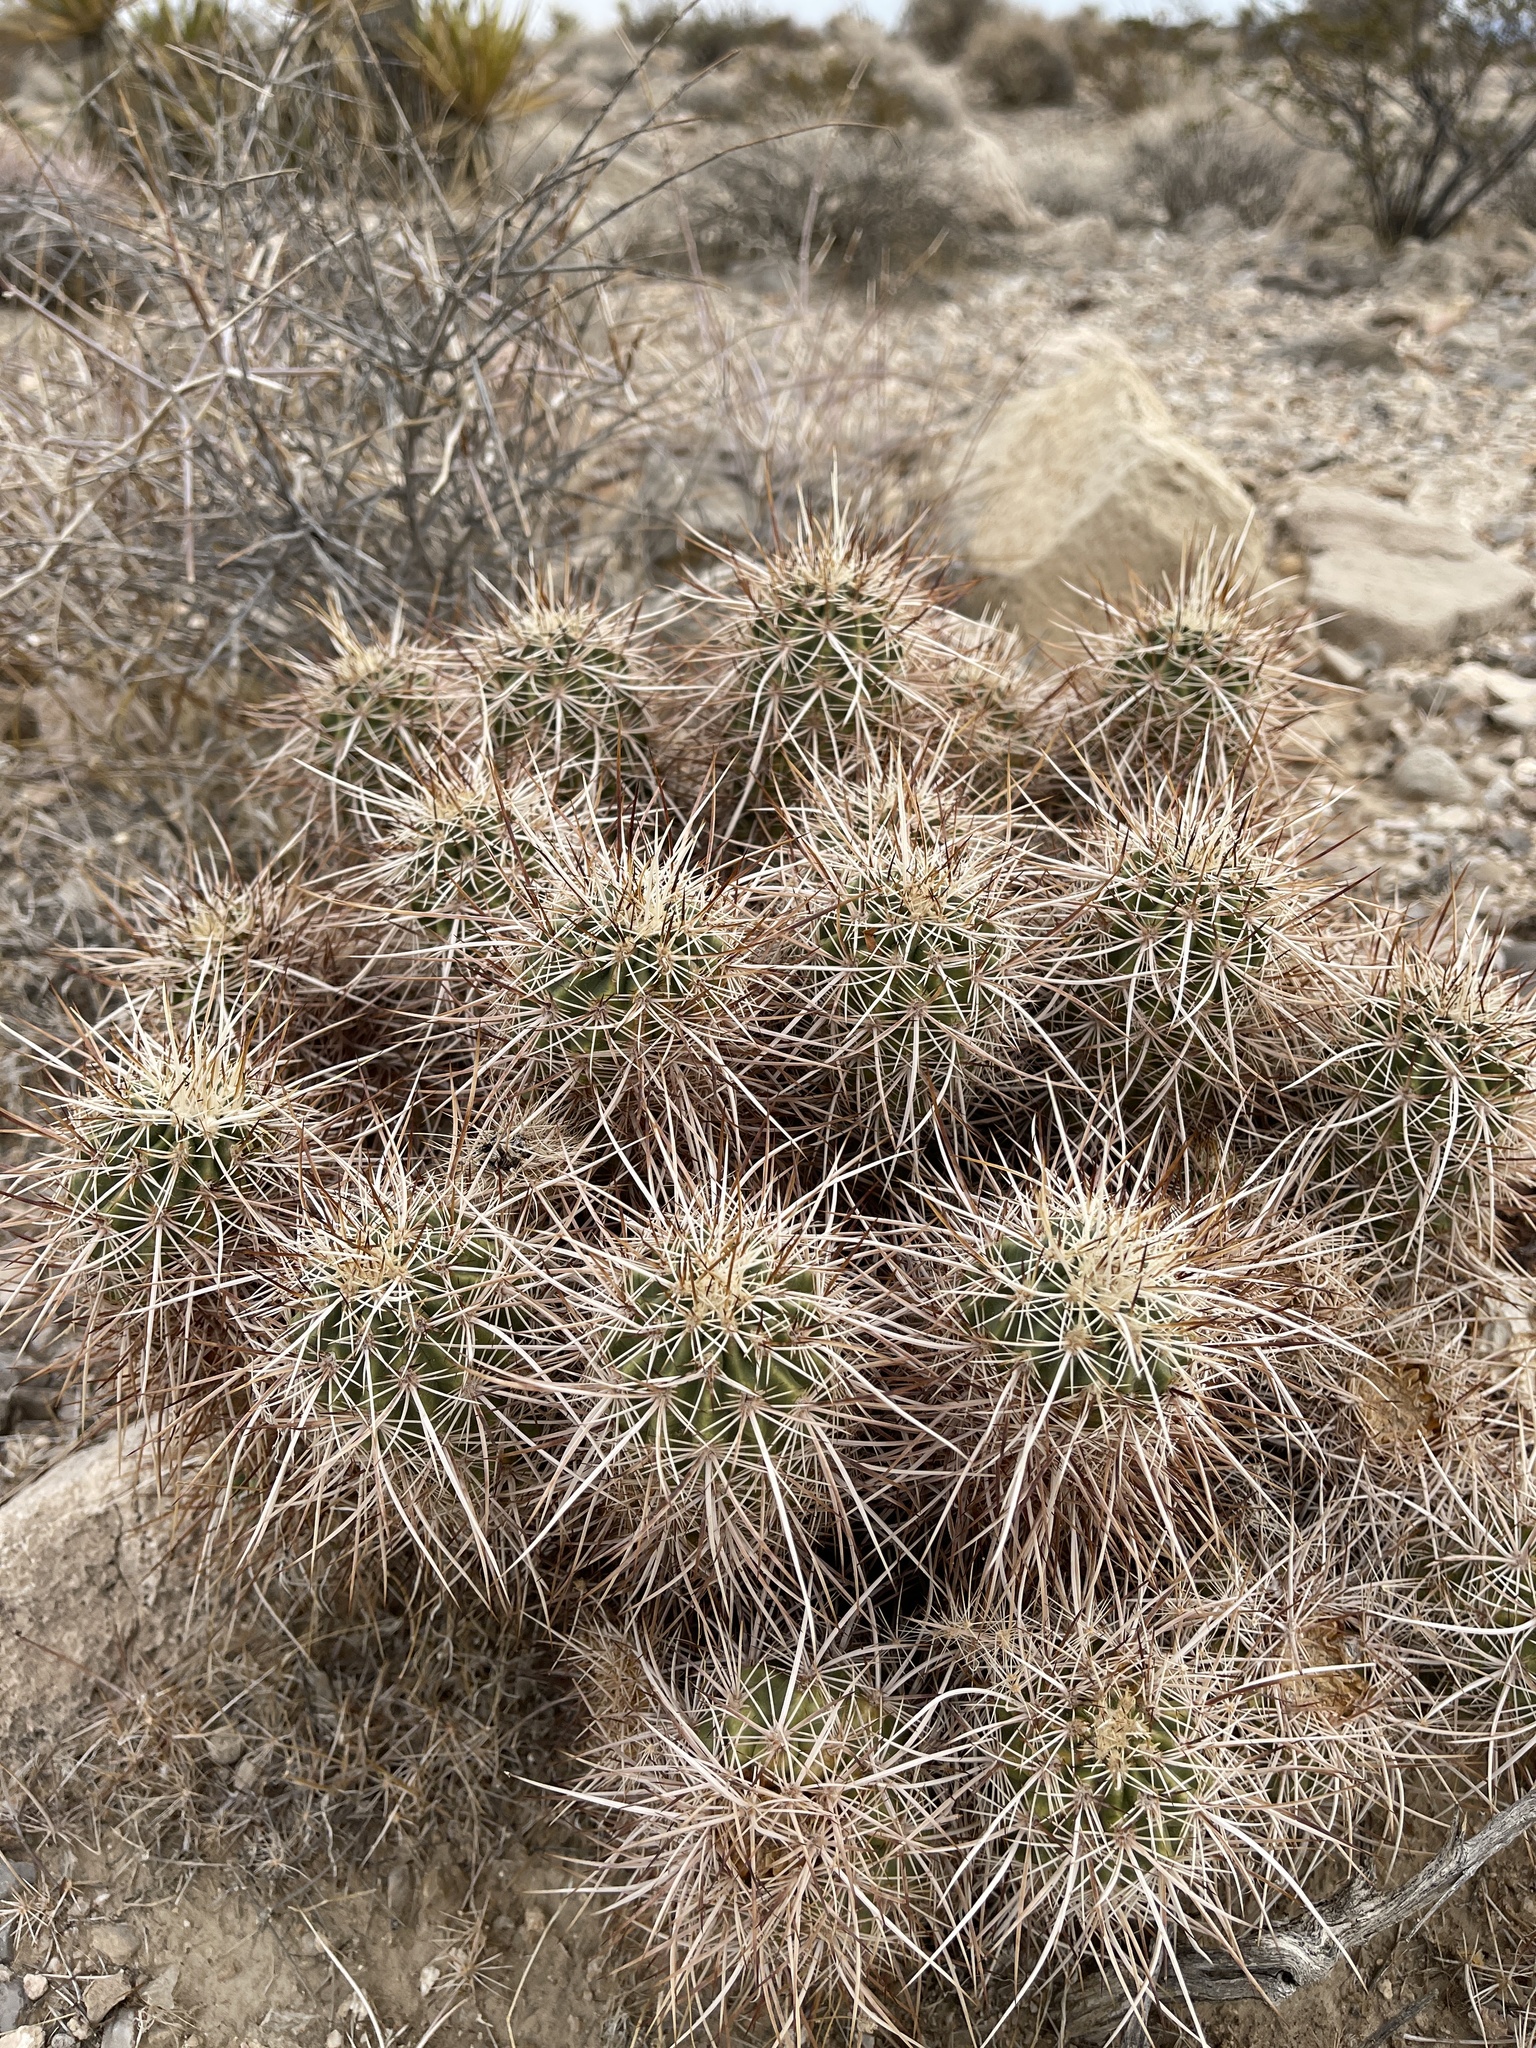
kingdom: Plantae
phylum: Tracheophyta
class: Magnoliopsida
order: Caryophyllales
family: Cactaceae
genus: Echinocereus
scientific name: Echinocereus engelmannii
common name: Engelmann's hedgehog cactus
